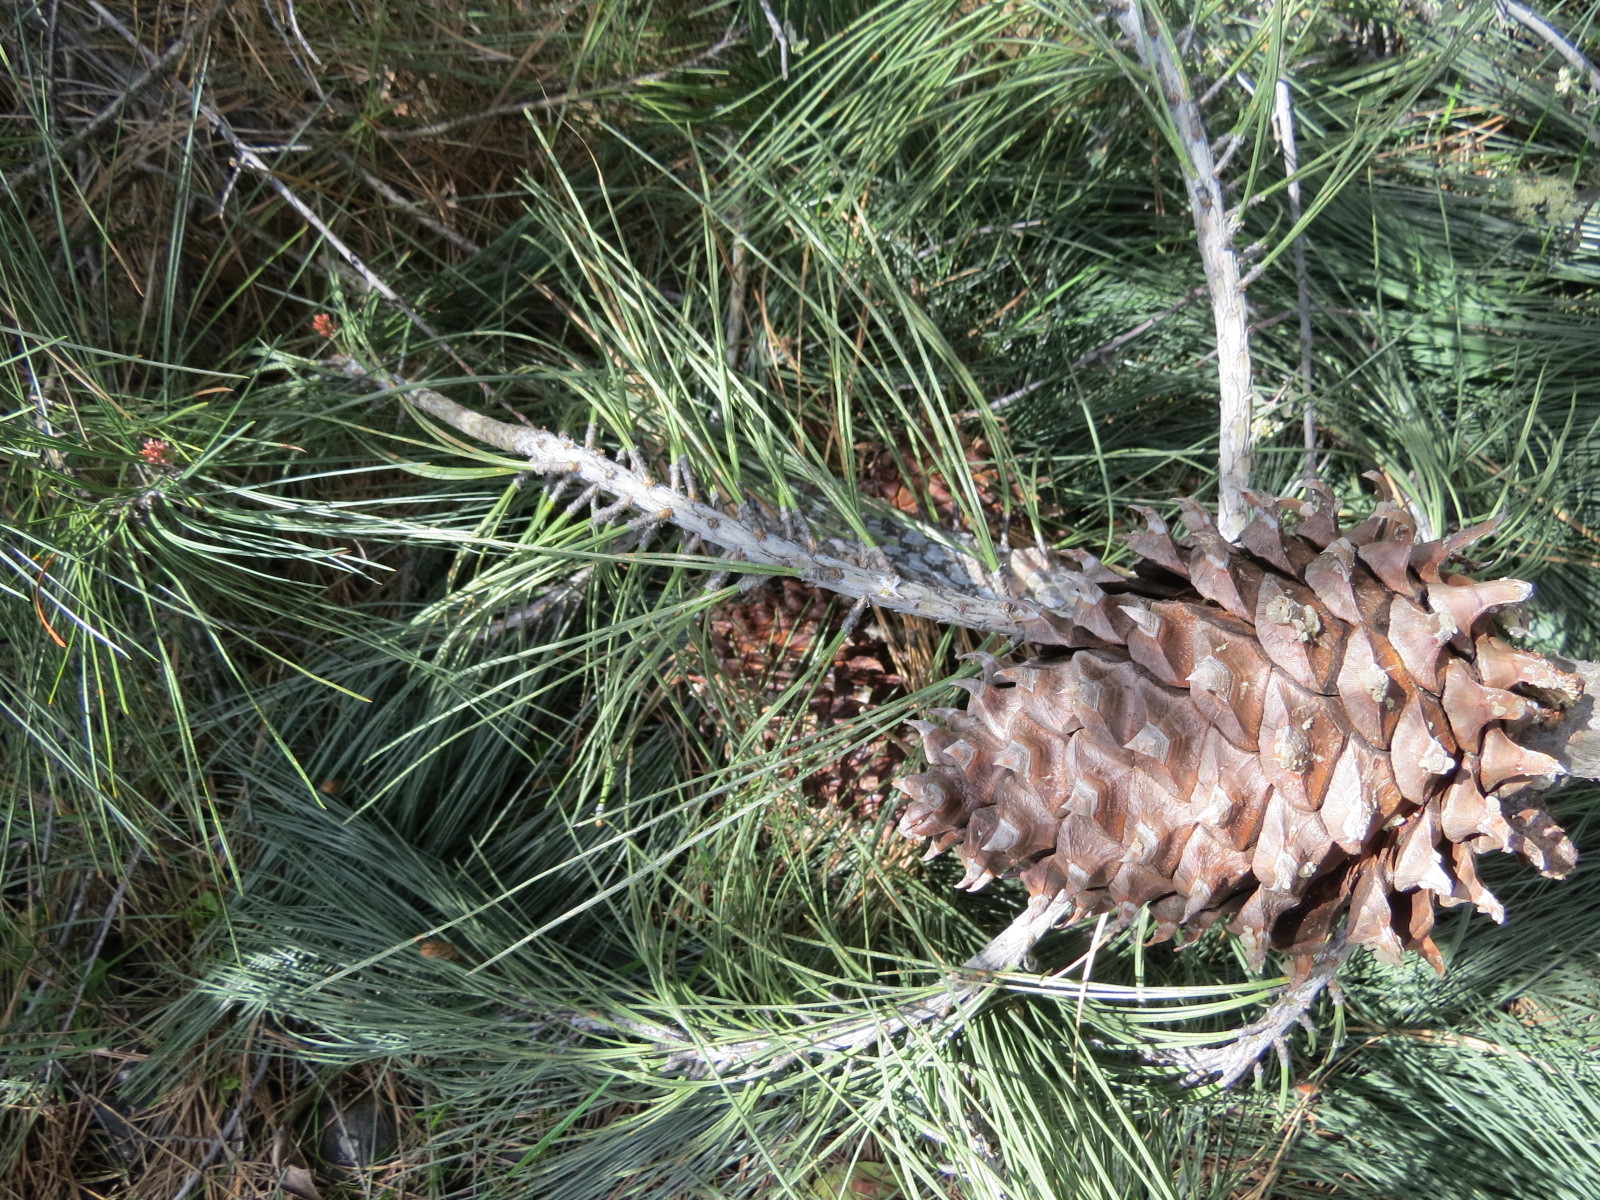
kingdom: Plantae
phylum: Tracheophyta
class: Pinopsida
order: Pinales
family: Pinaceae
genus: Pinus
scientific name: Pinus sabiniana
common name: Bull pine
